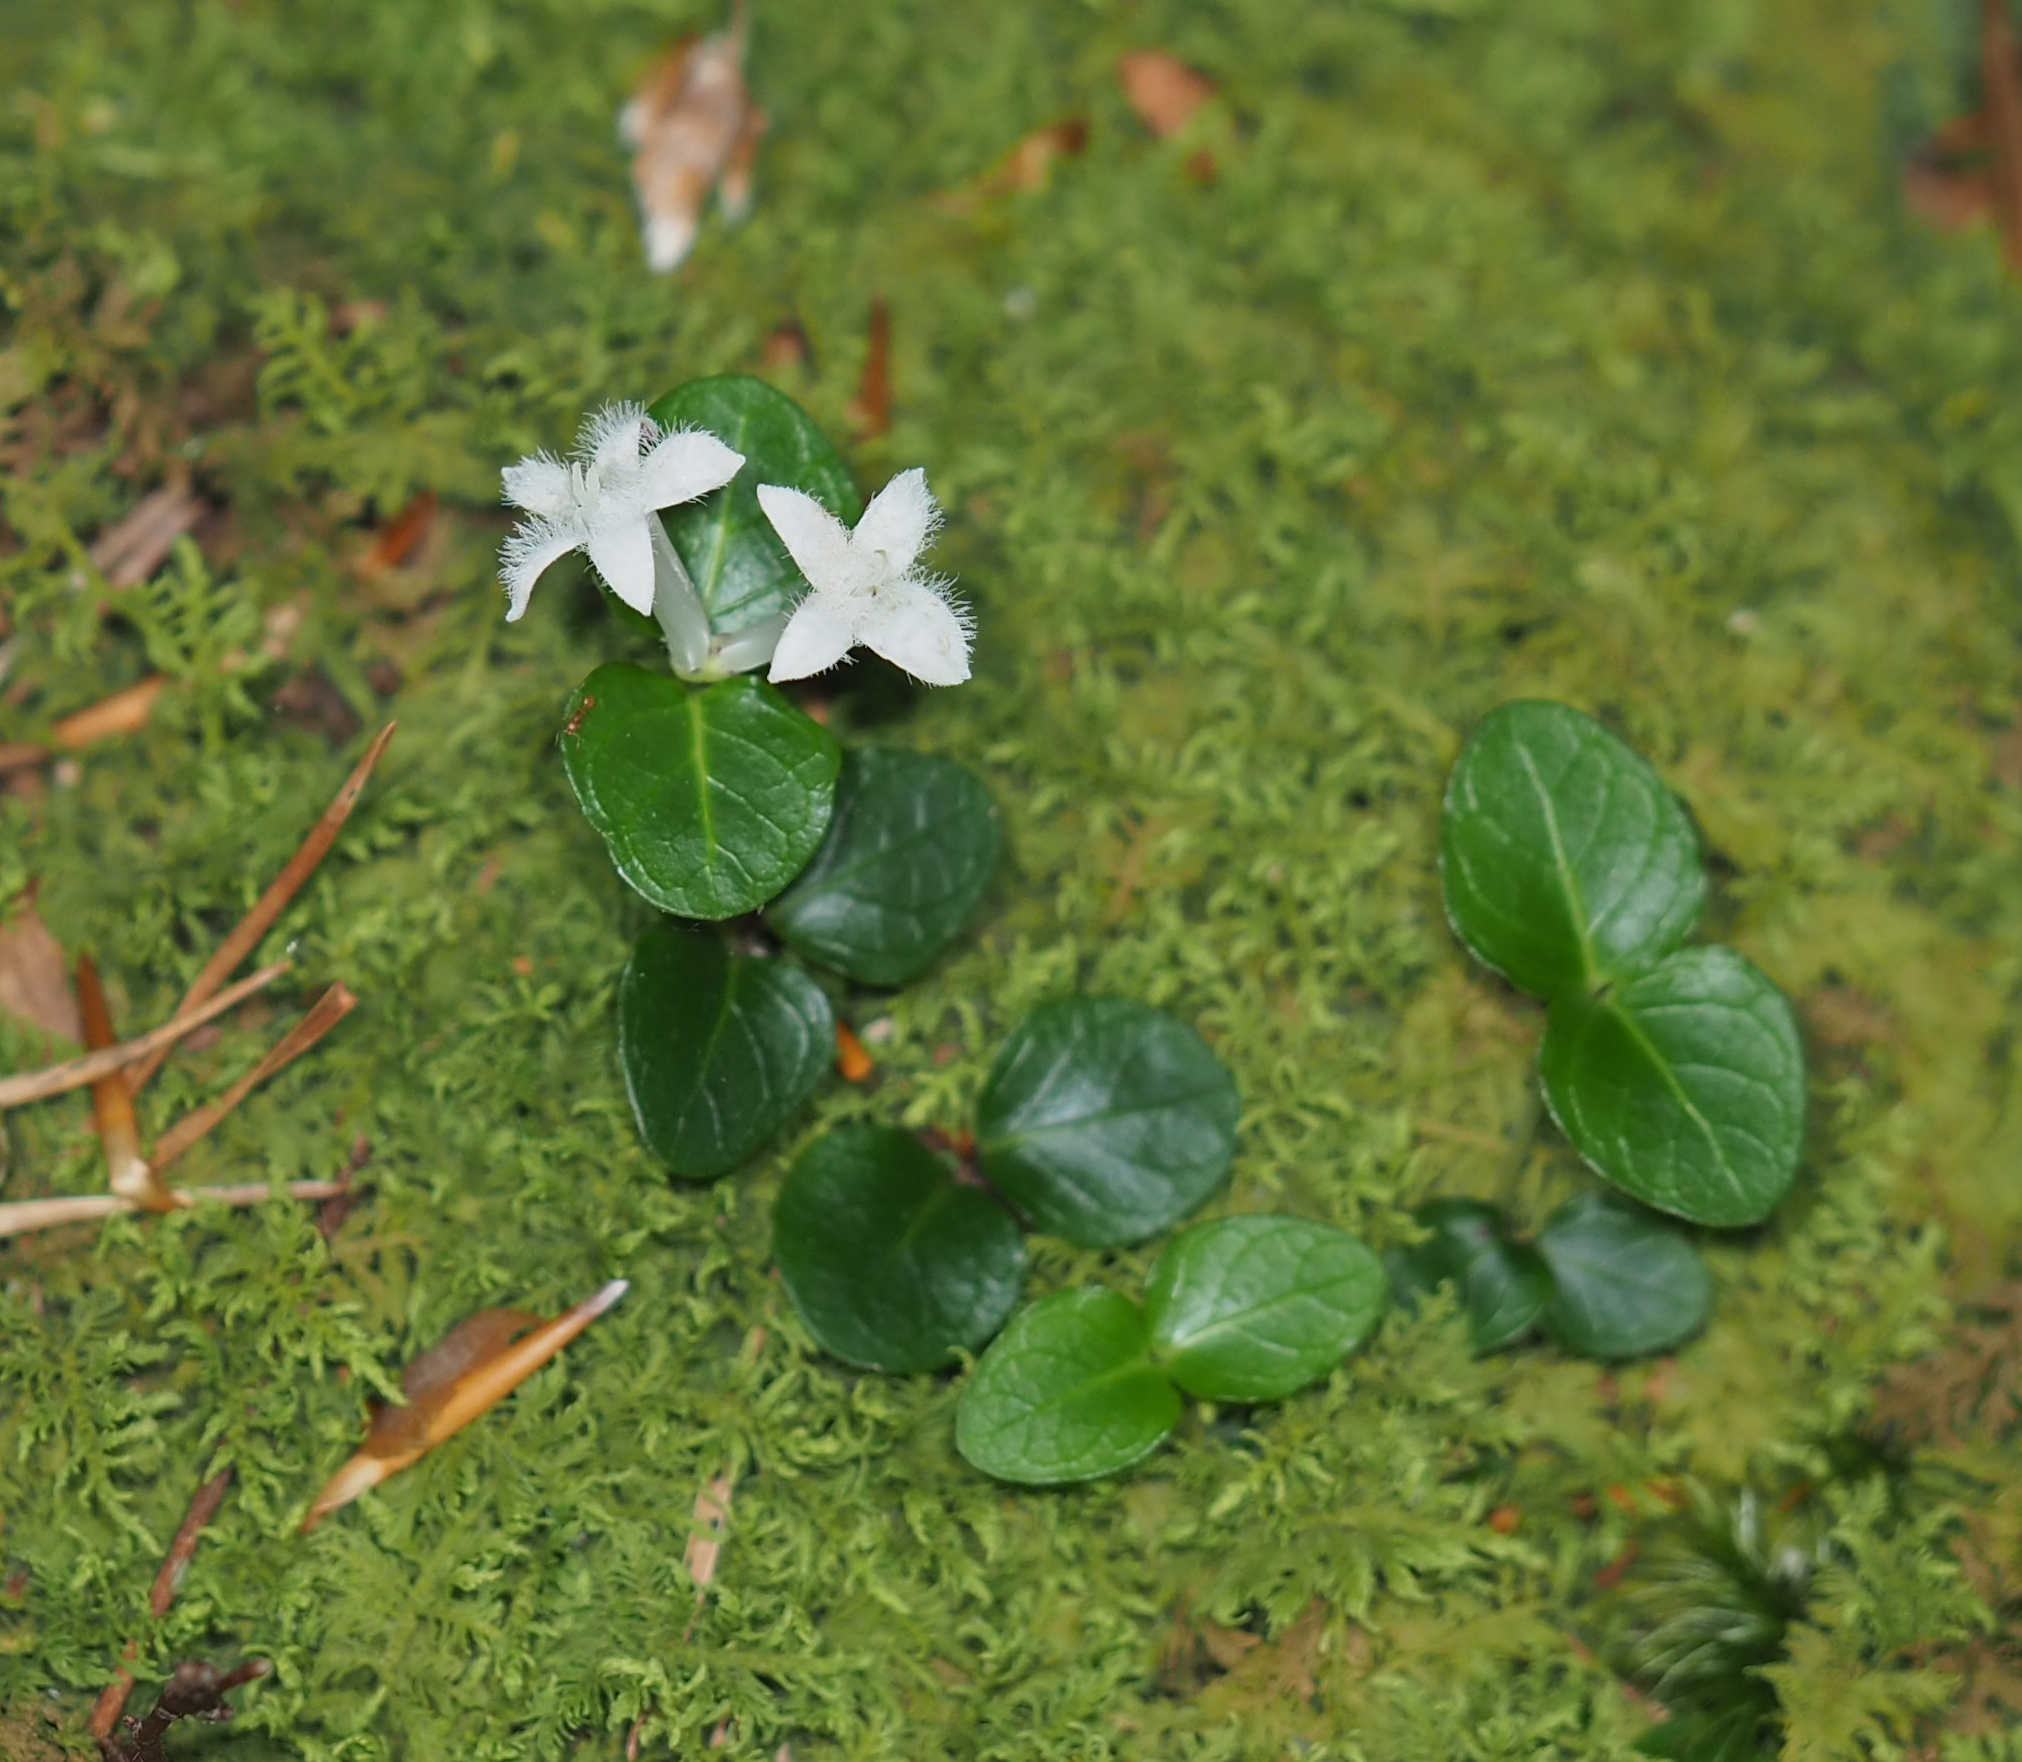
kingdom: Plantae
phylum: Tracheophyta
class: Magnoliopsida
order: Gentianales
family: Rubiaceae
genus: Mitchella
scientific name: Mitchella repens
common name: Partridge-berry
